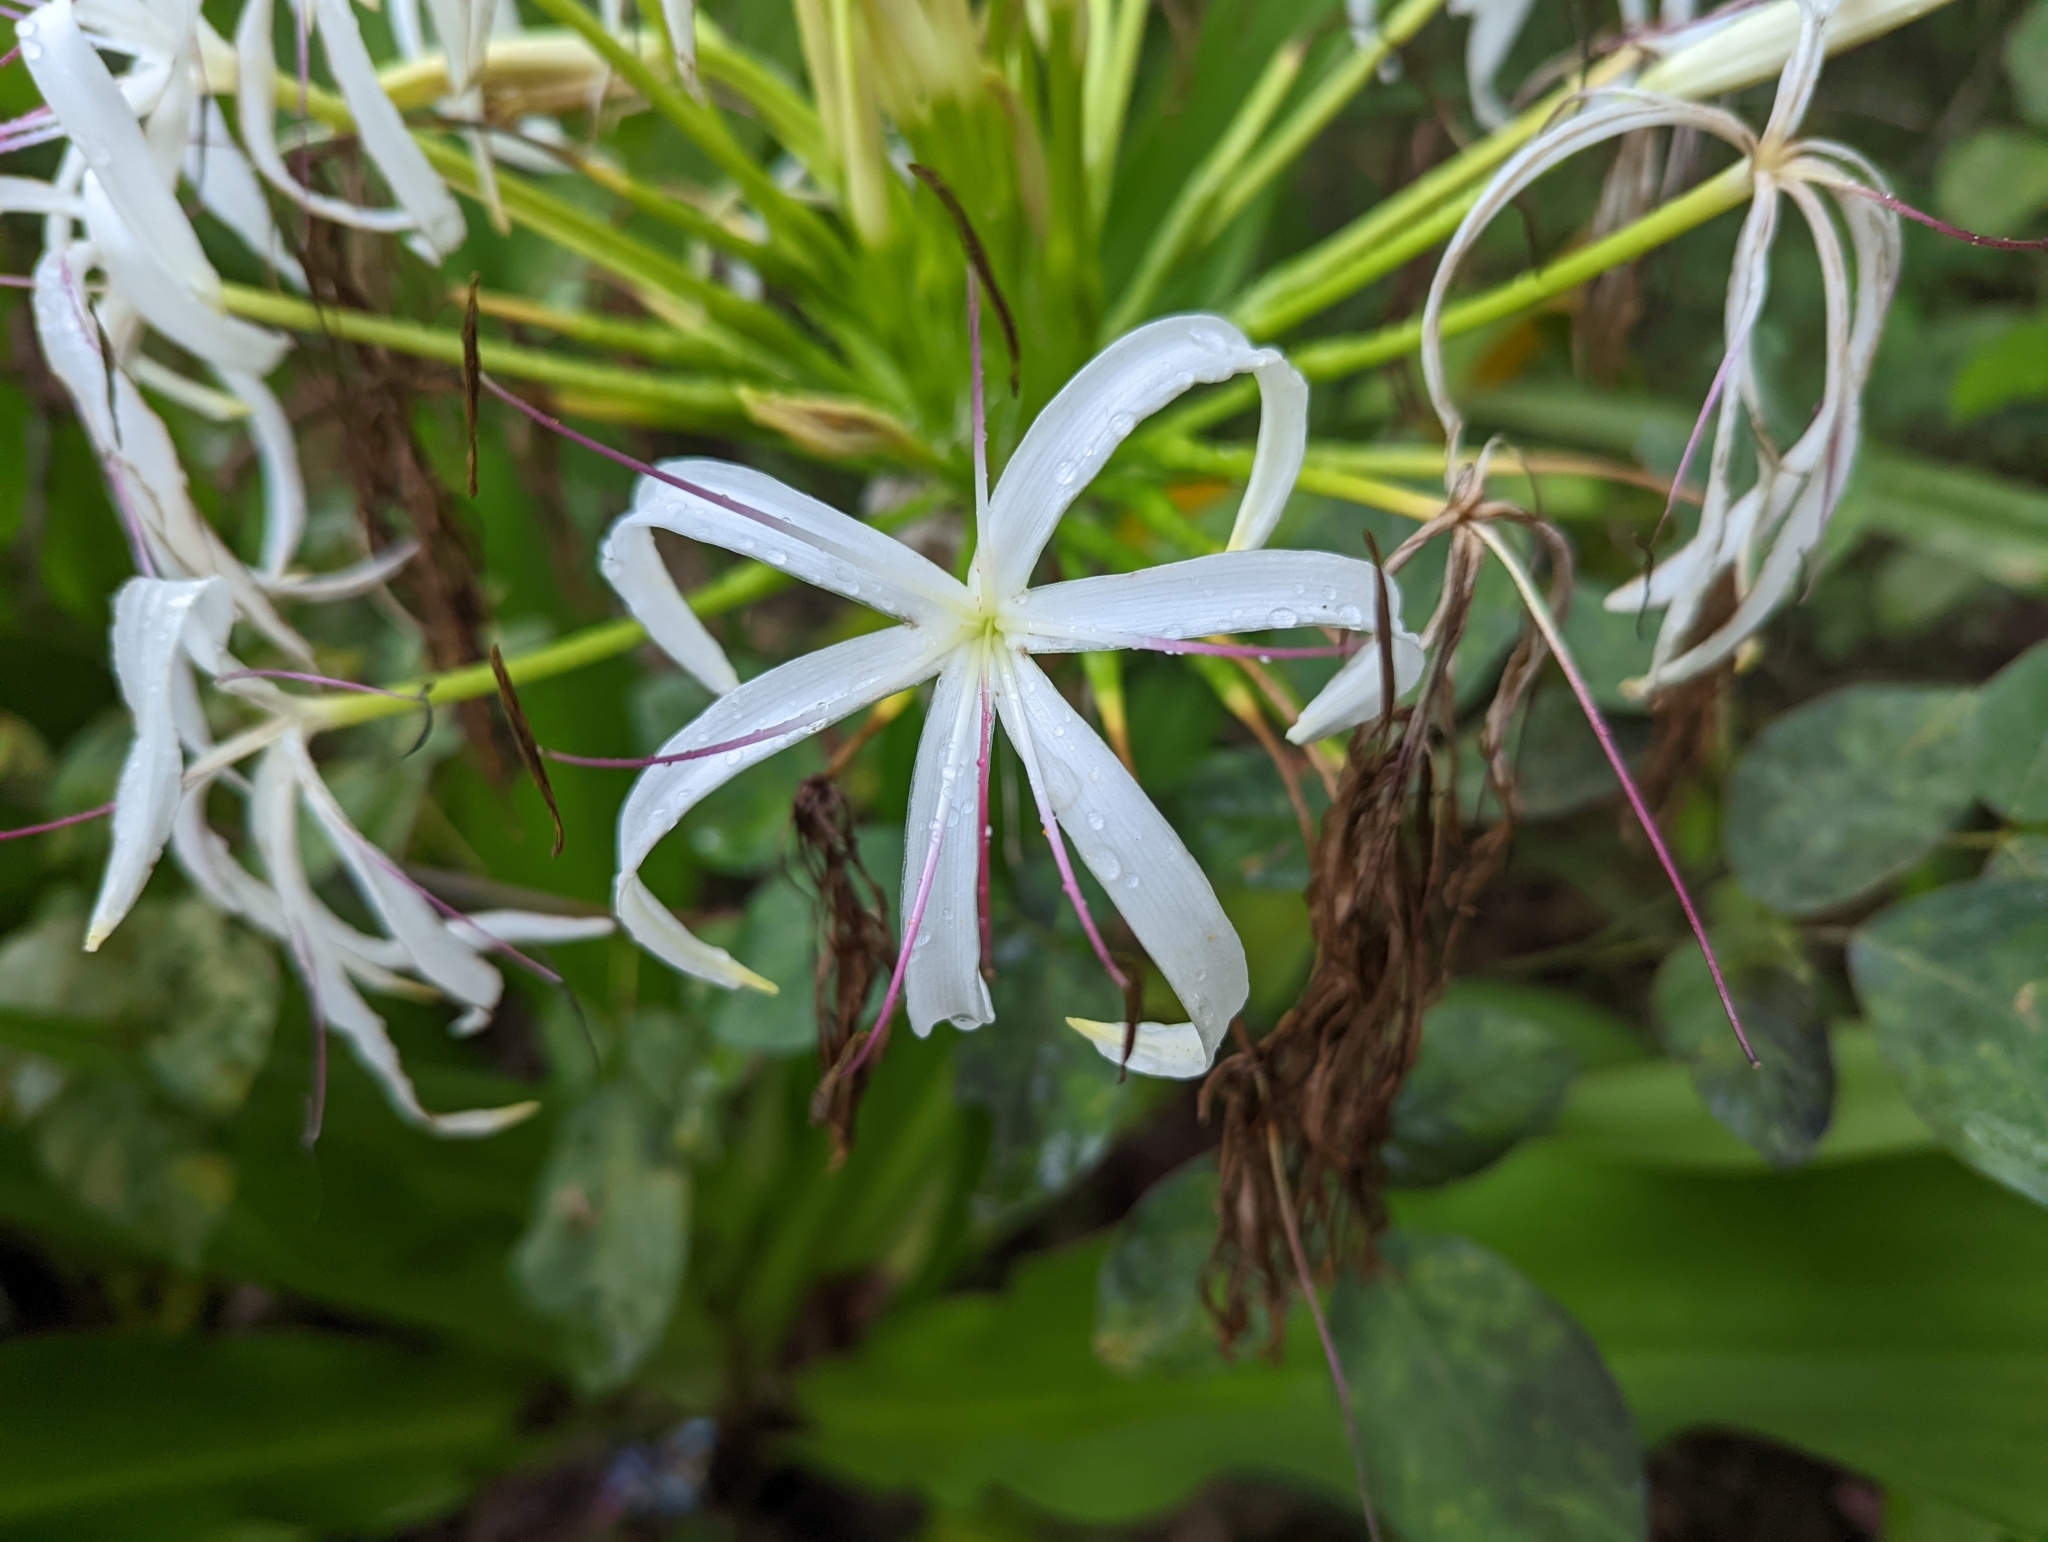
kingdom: Plantae
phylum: Tracheophyta
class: Liliopsida
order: Asparagales
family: Amaryllidaceae
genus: Crinum
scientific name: Crinum asiaticum
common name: Poisonbulb
